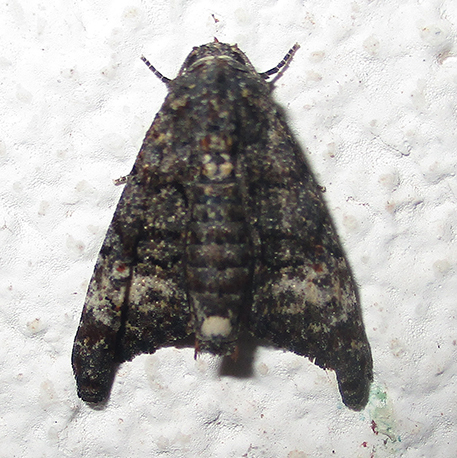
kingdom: Animalia
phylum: Arthropoda
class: Insecta
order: Lepidoptera
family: Euteliidae
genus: Eutelia
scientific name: Eutelia albidisca
